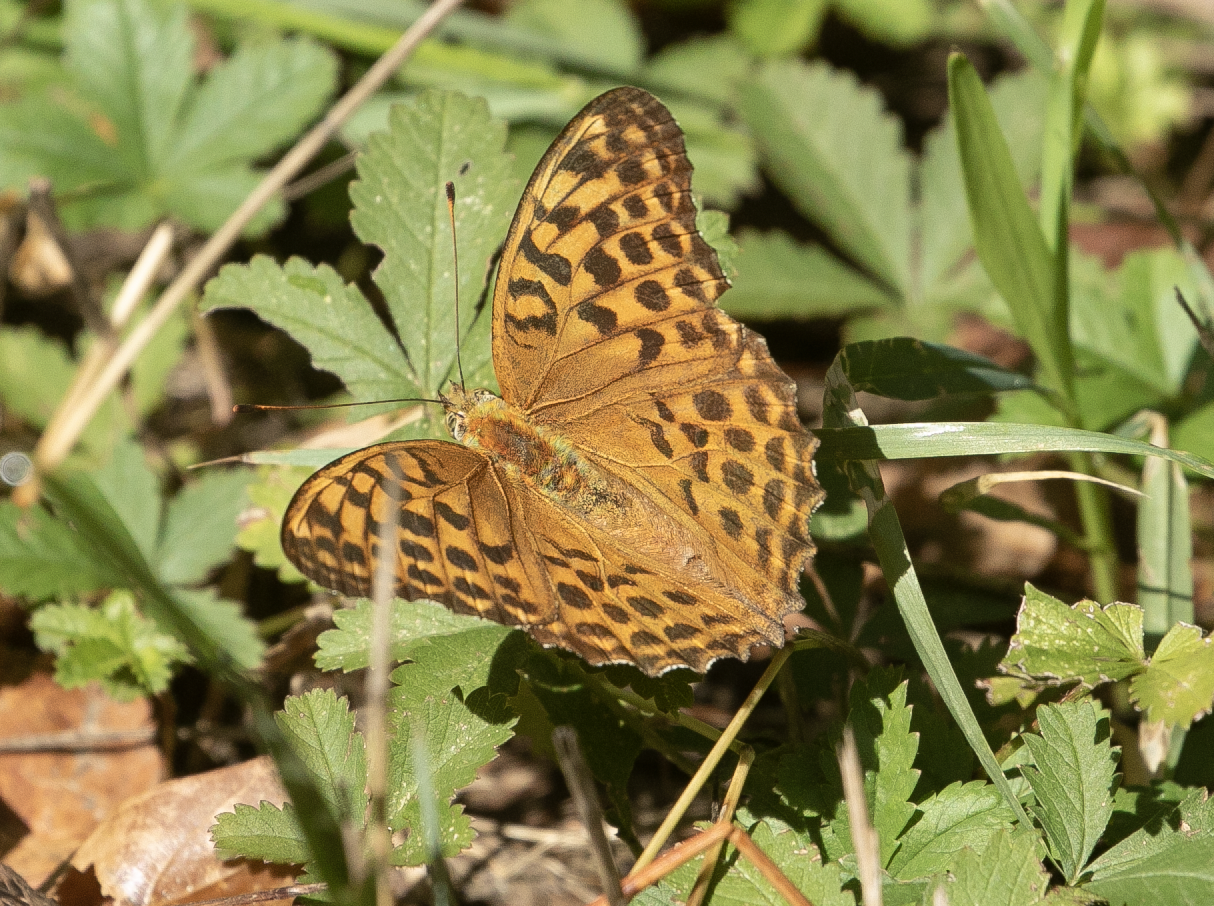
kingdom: Animalia
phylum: Arthropoda
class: Insecta
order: Lepidoptera
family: Nymphalidae
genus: Argynnis
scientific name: Argynnis paphia
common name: Silver-washed fritillary
